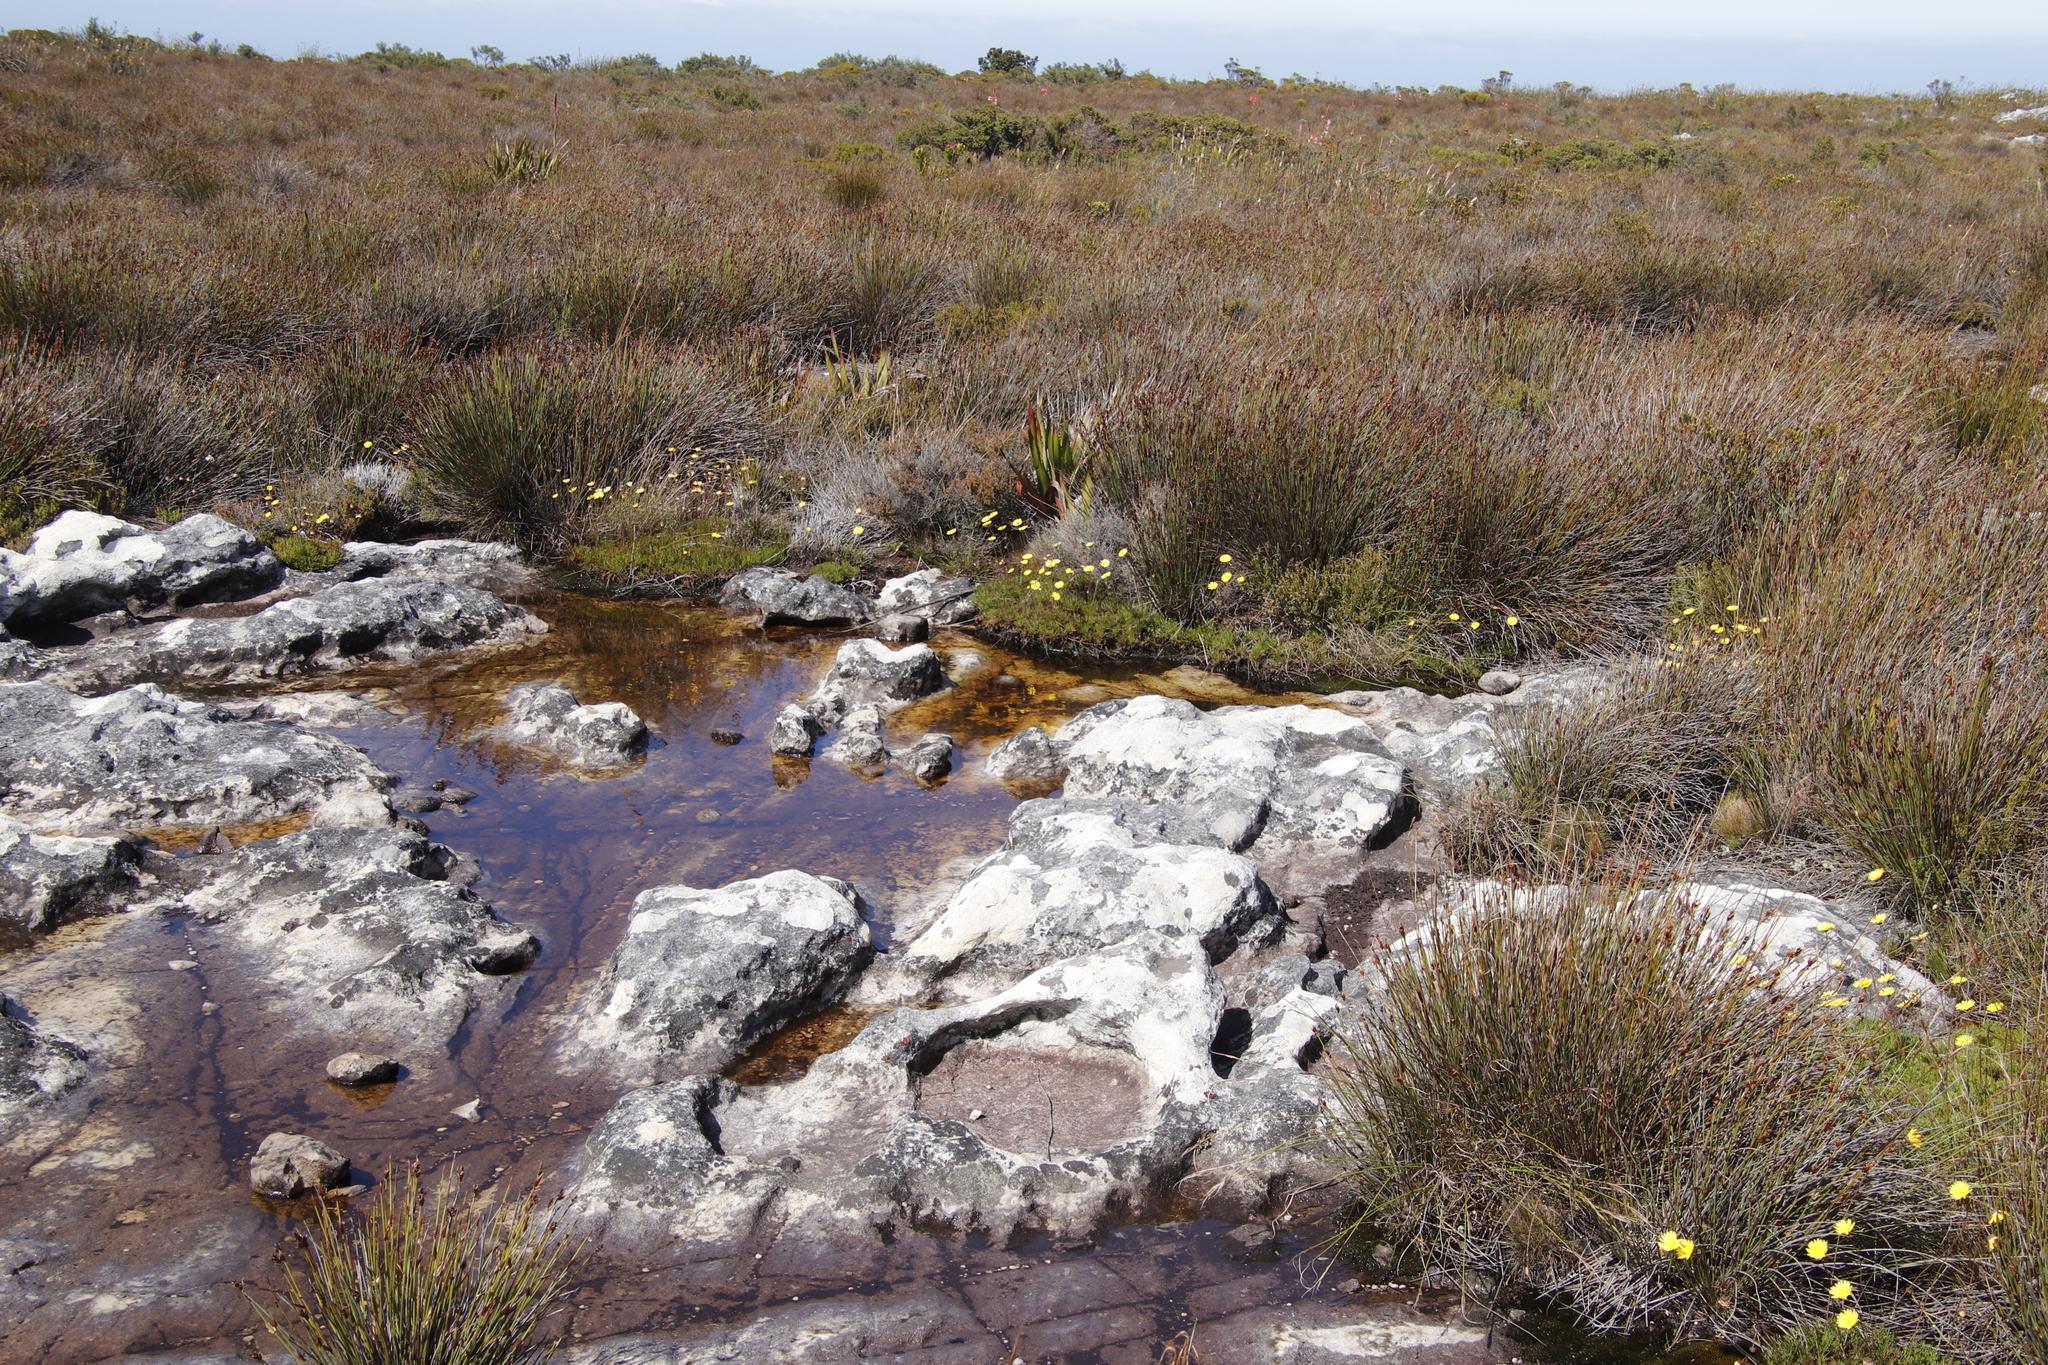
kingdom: Plantae
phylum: Tracheophyta
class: Magnoliopsida
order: Asterales
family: Asteraceae
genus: Ursinia
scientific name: Ursinia nudicaulis
